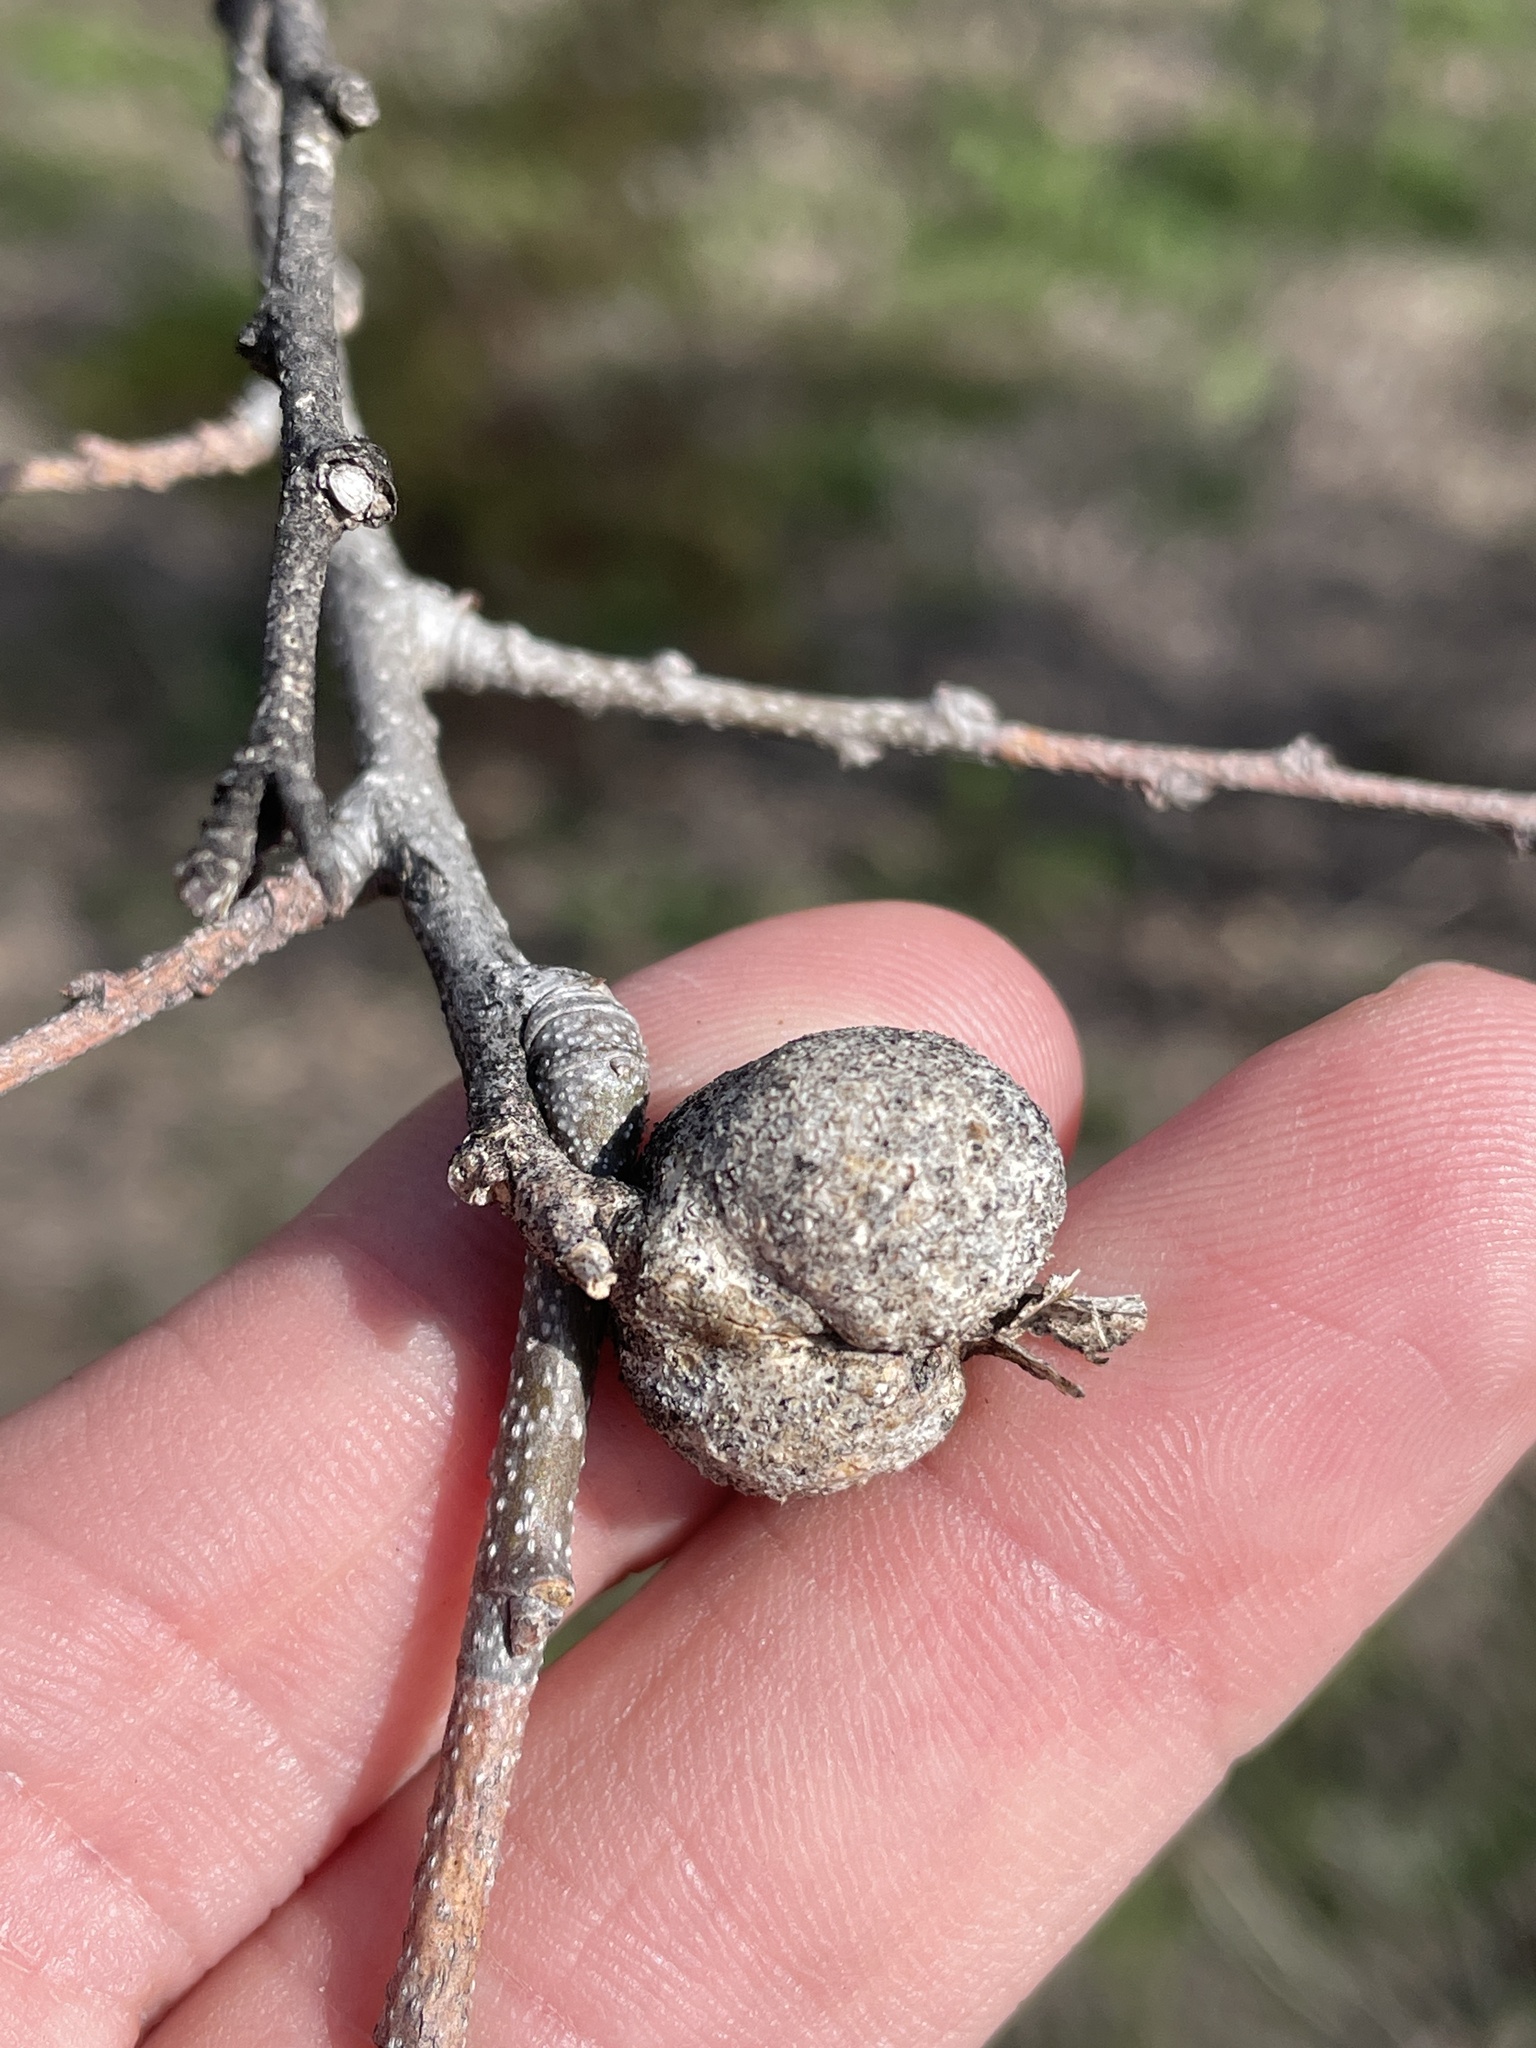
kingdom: Animalia
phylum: Arthropoda
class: Insecta
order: Hemiptera
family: Aphalaridae
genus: Pachypsylla
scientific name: Pachypsylla venusta
